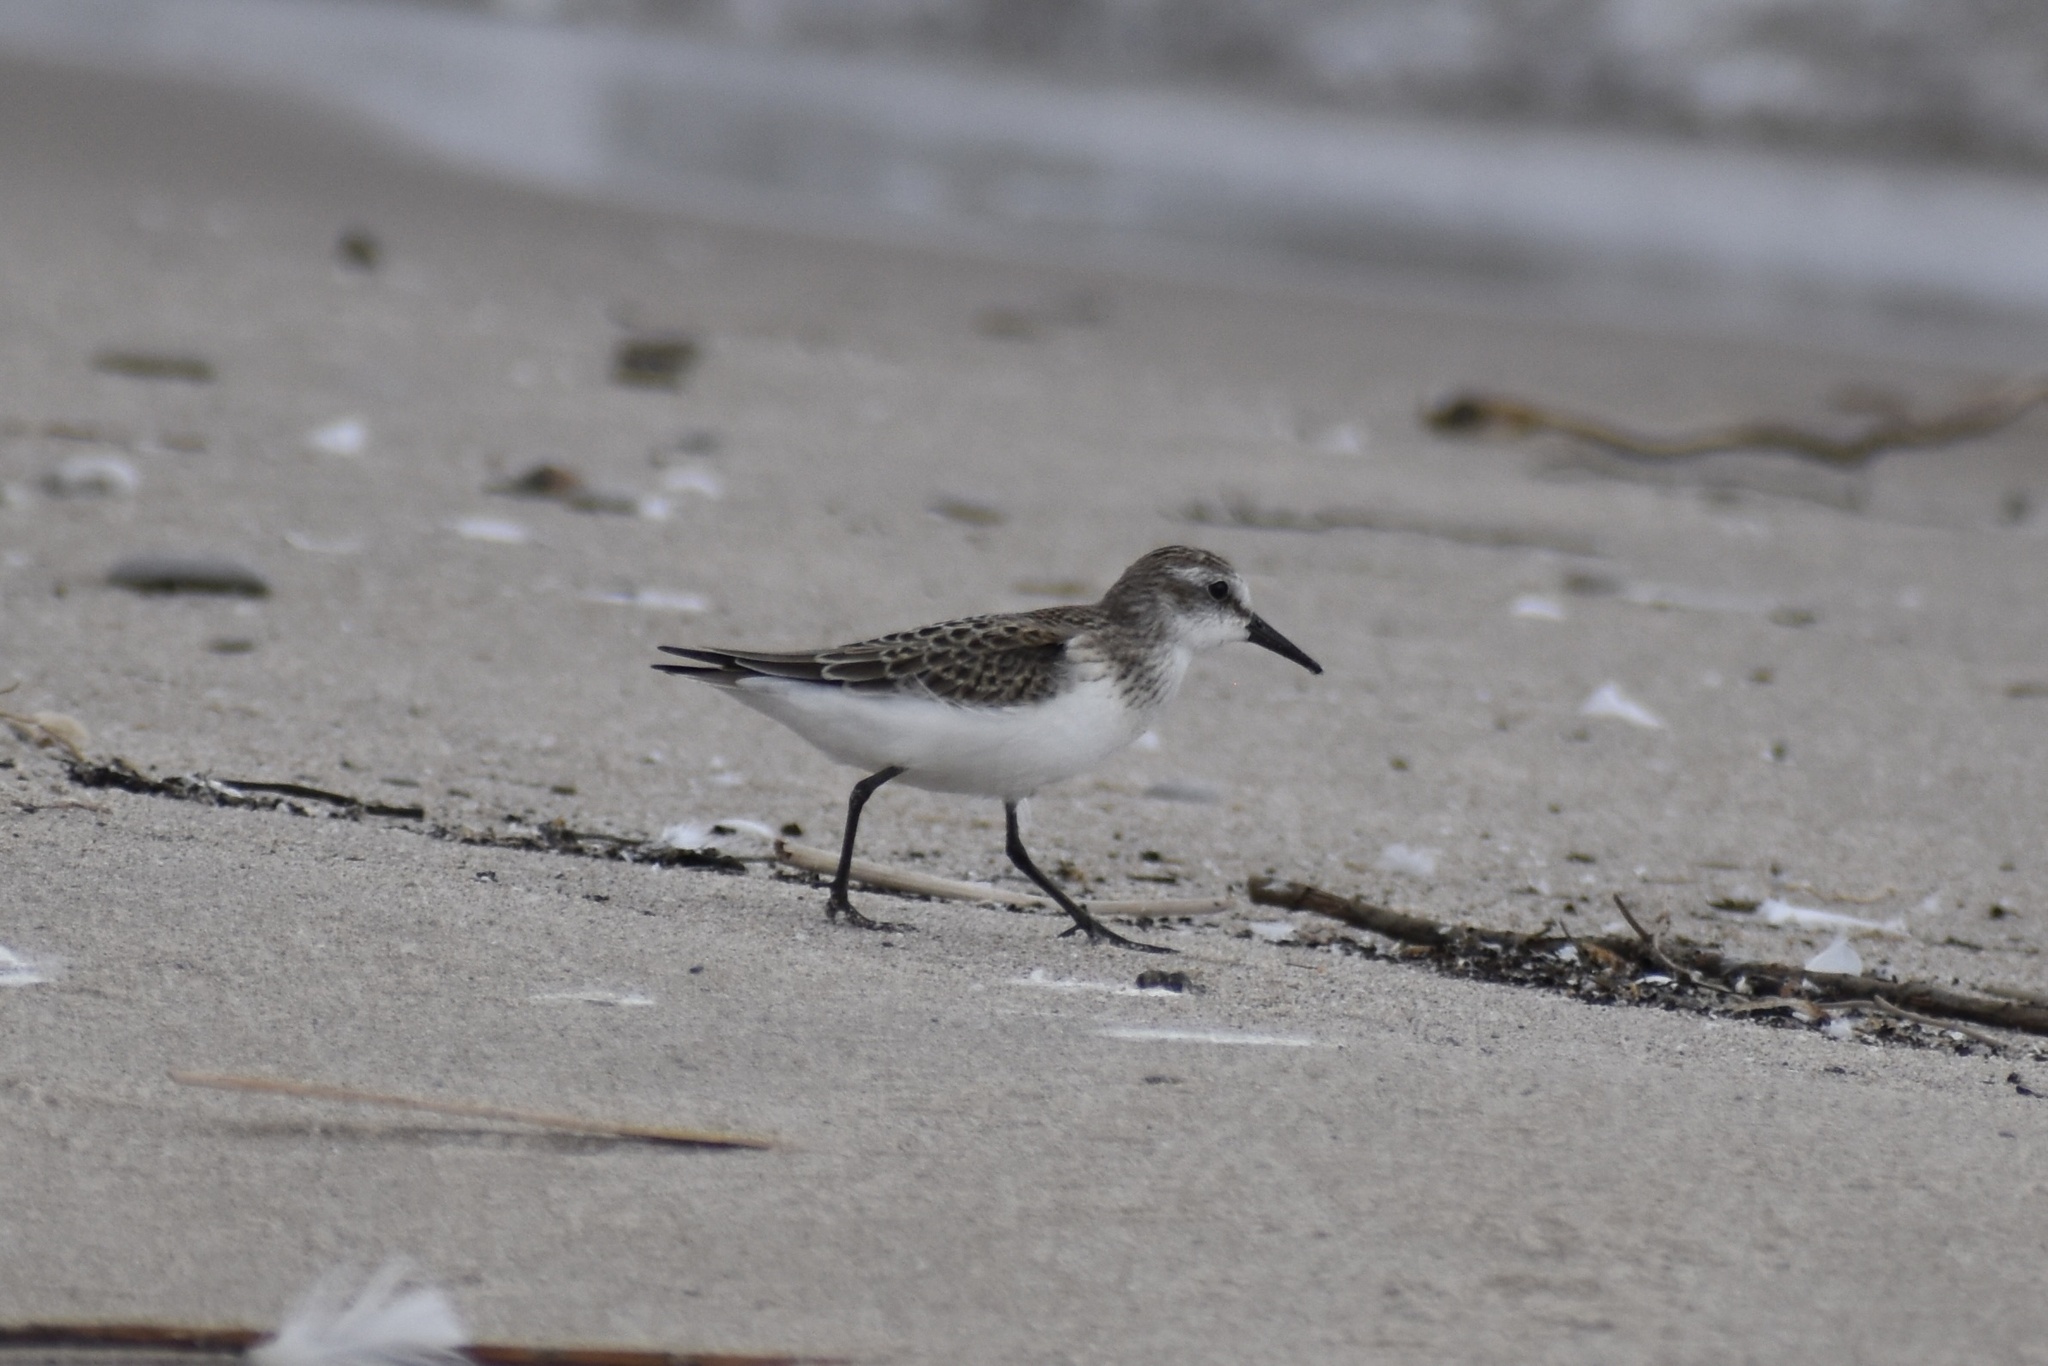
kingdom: Animalia
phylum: Chordata
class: Aves
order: Charadriiformes
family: Scolopacidae
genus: Calidris
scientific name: Calidris pusilla
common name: Semipalmated sandpiper
